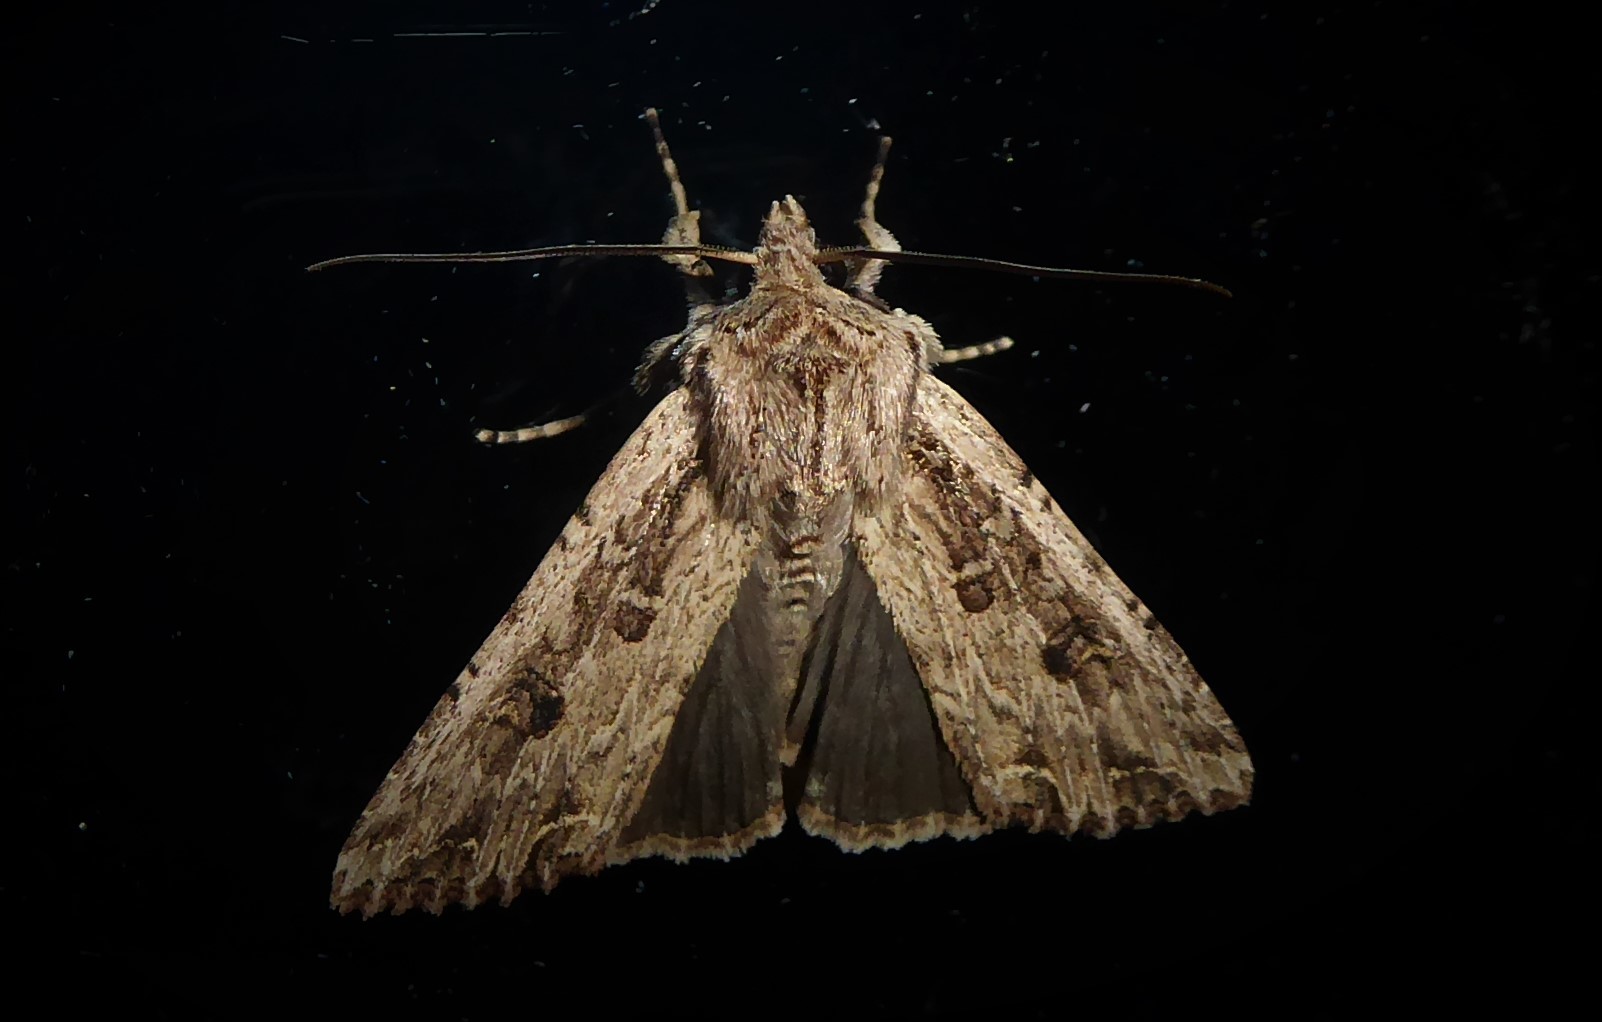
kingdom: Animalia
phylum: Arthropoda
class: Insecta
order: Lepidoptera
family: Noctuidae
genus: Ichneutica
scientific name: Ichneutica lignana
